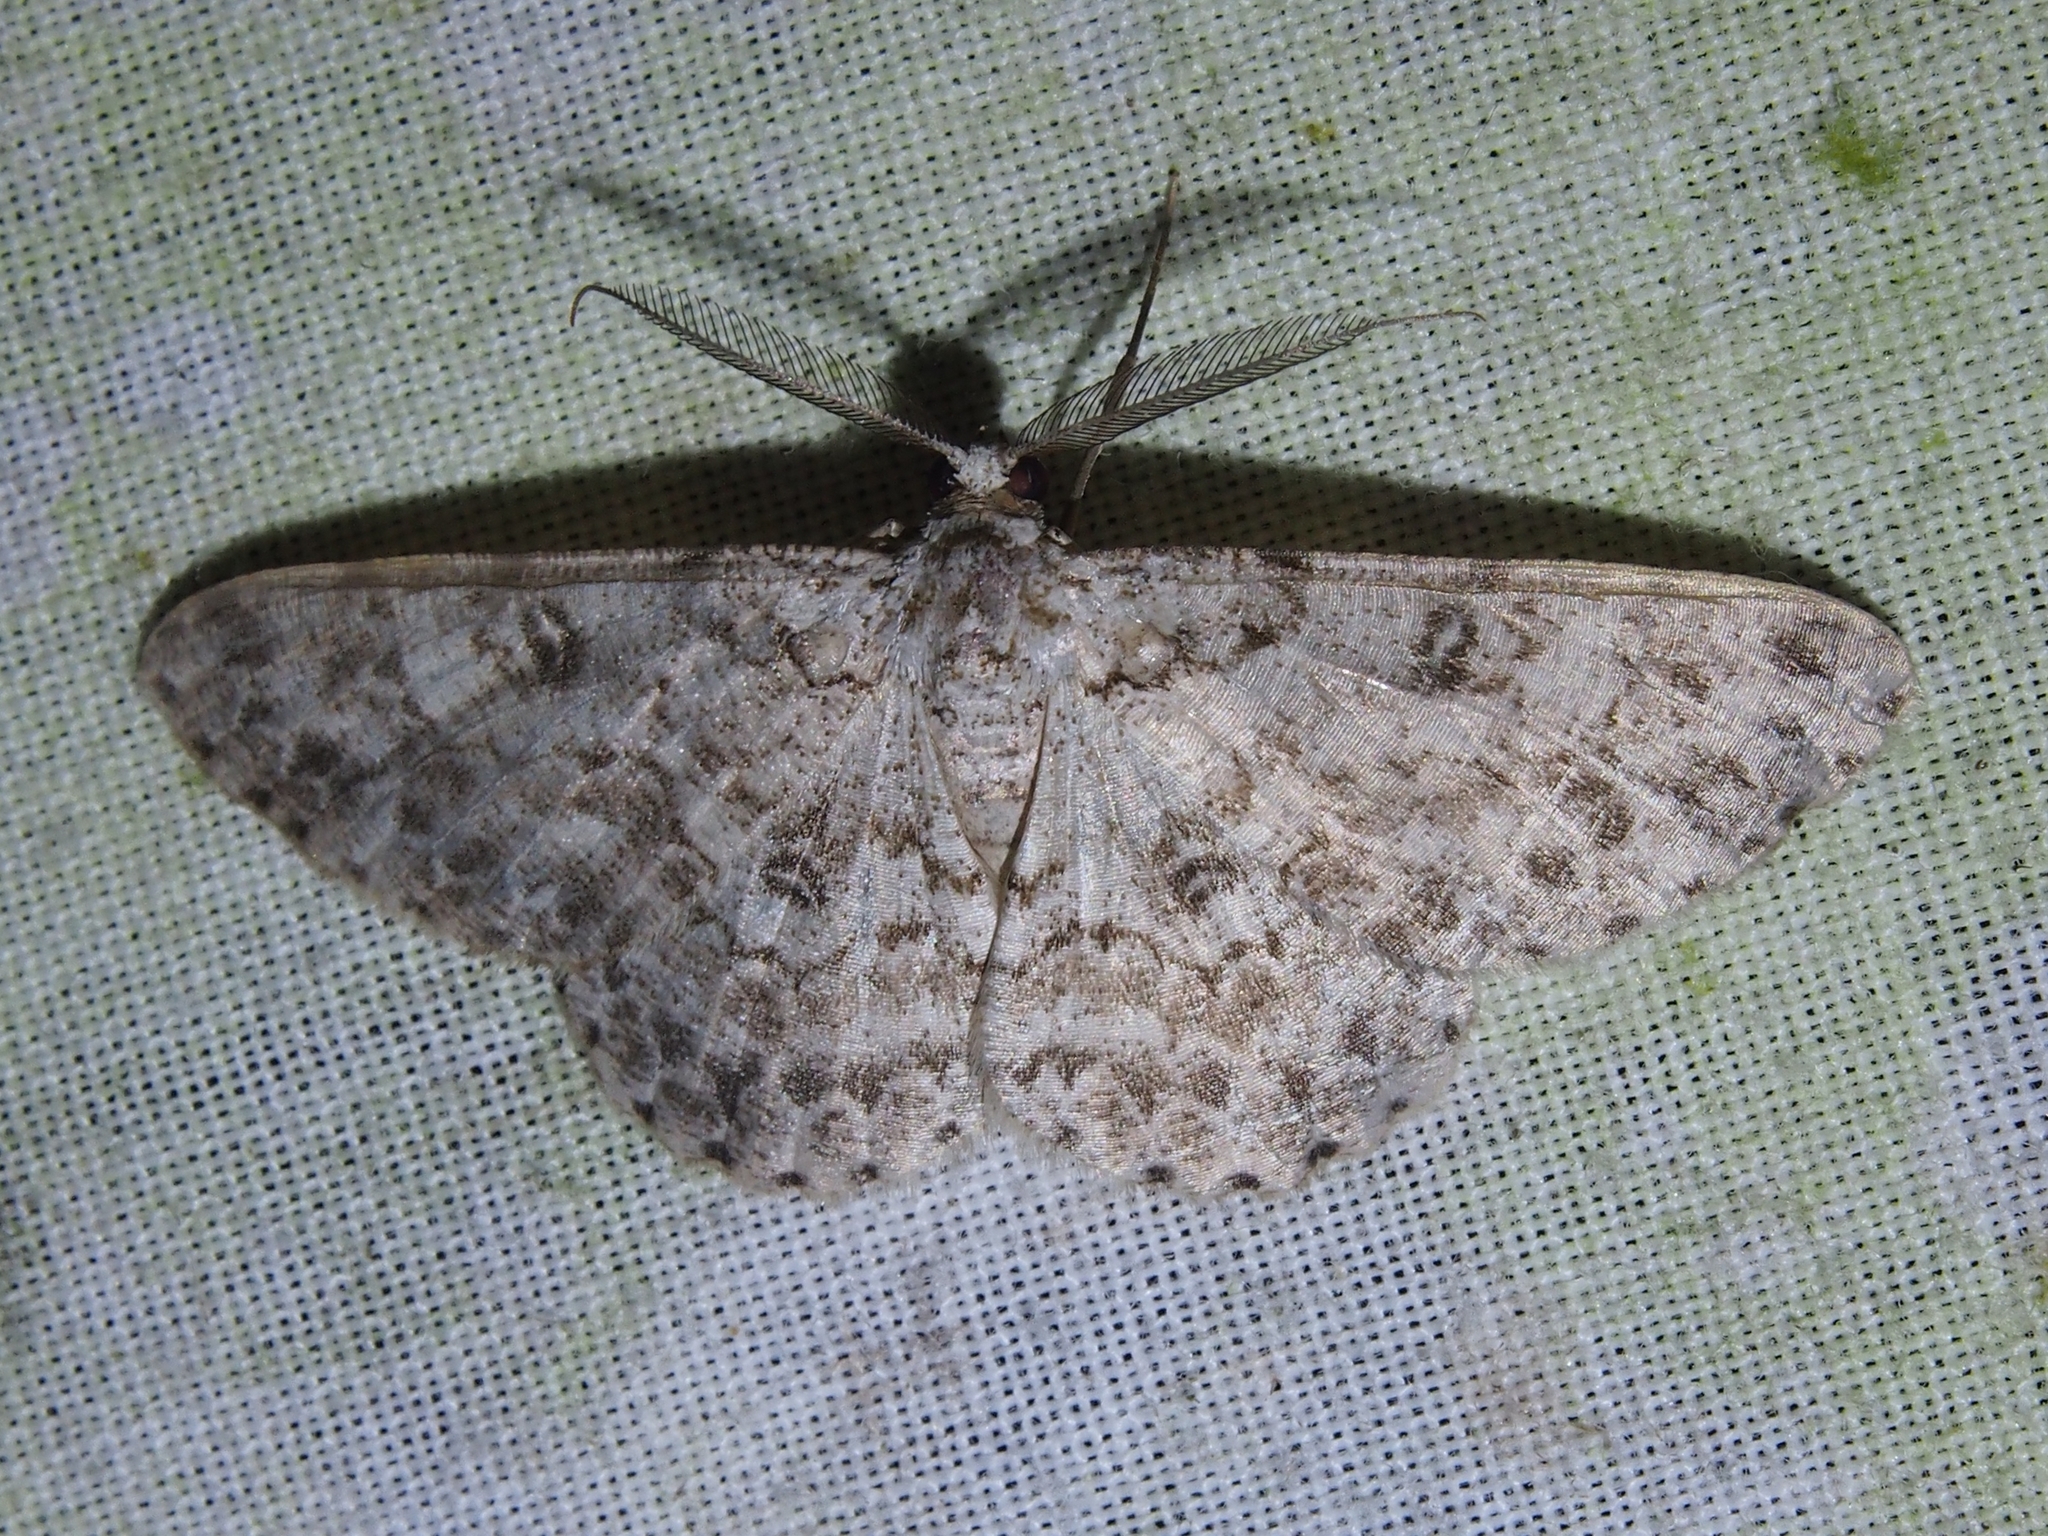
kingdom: Animalia
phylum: Arthropoda
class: Insecta
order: Lepidoptera
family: Geometridae
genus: Glena
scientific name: Glena subannulata
